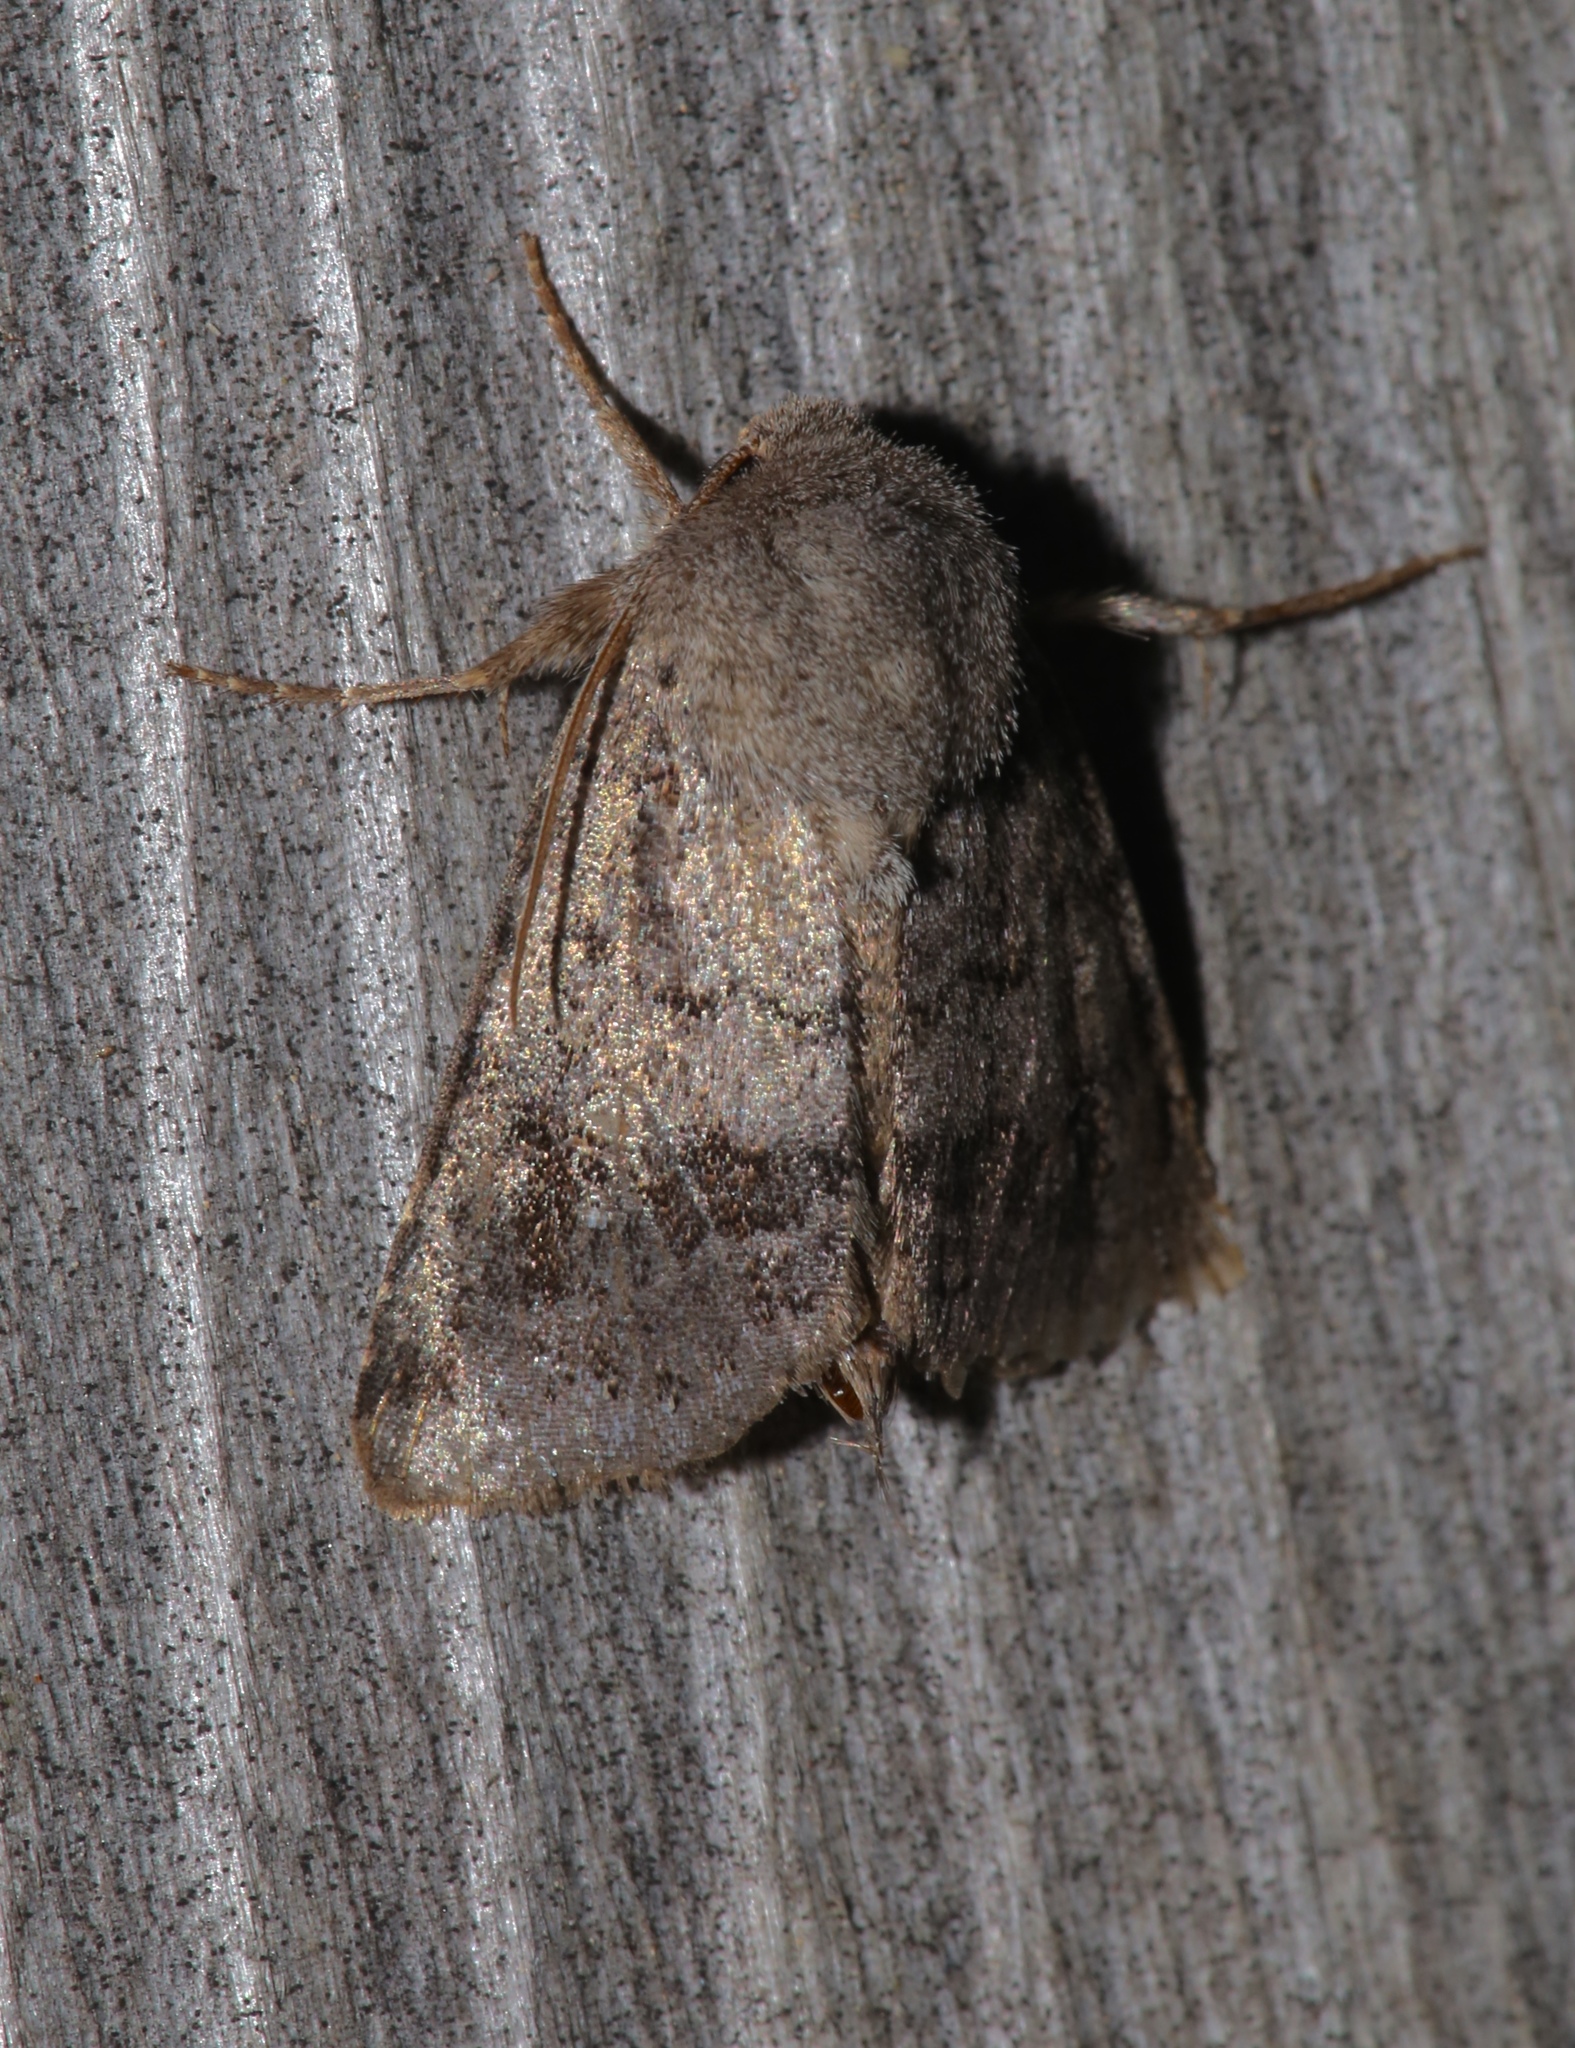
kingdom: Animalia
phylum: Arthropoda
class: Insecta
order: Lepidoptera
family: Noctuidae
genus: Ulolonche
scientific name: Ulolonche modesta
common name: Modest quaker
